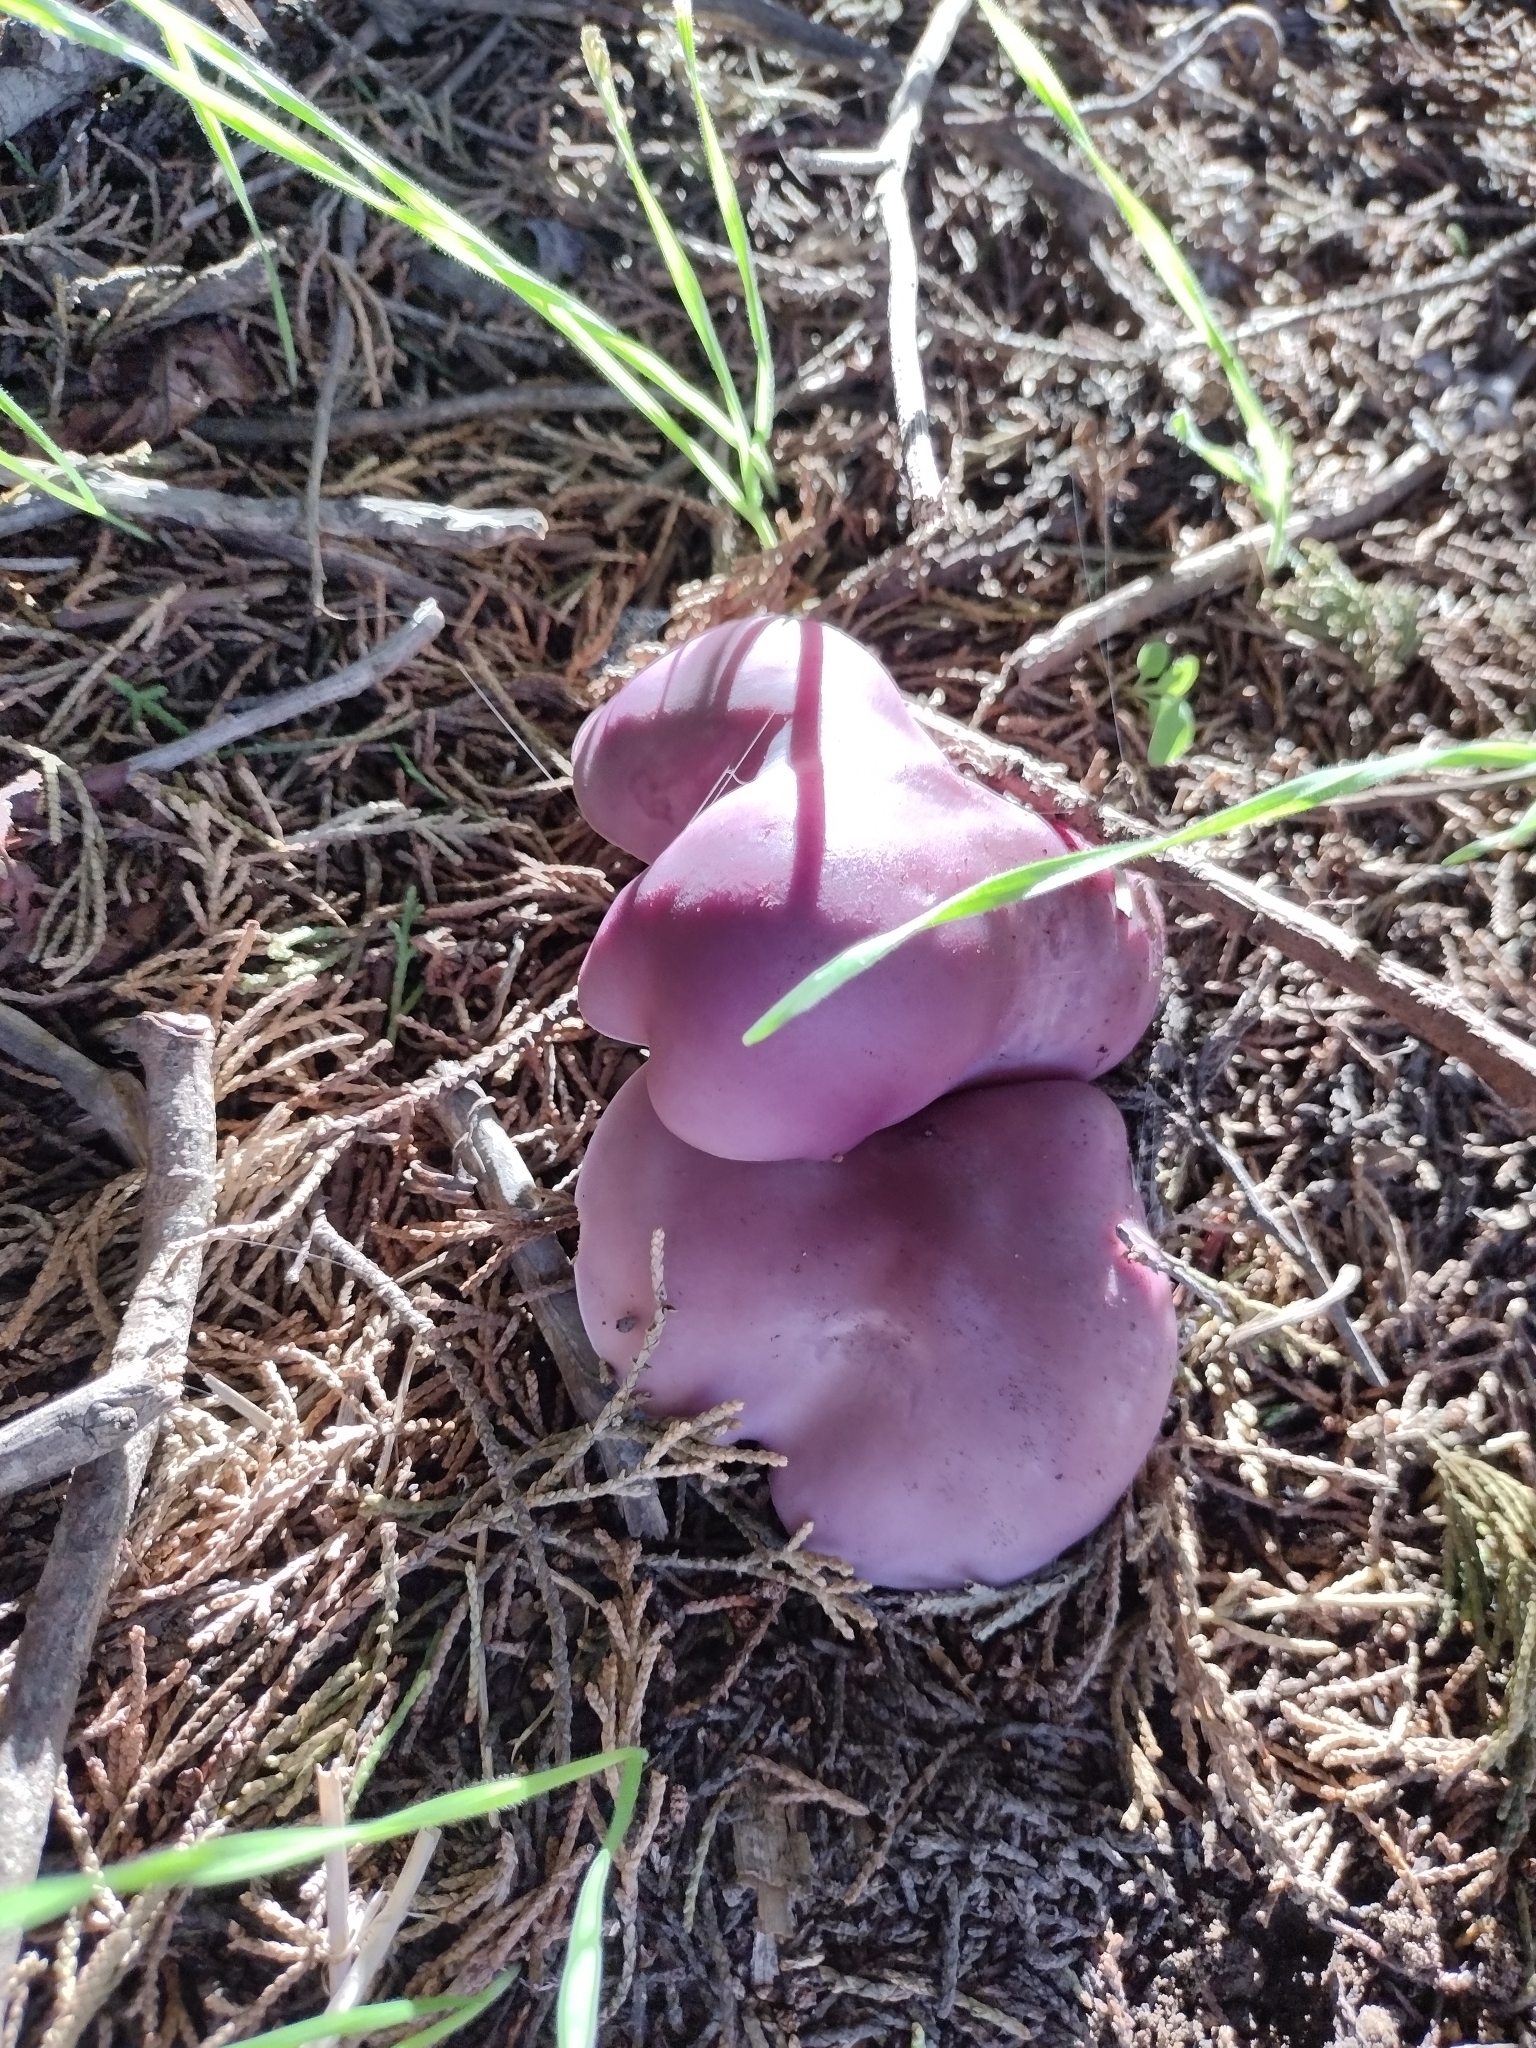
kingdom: Fungi
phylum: Basidiomycota
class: Agaricomycetes
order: Agaricales
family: Tricholomataceae
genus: Collybia
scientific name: Collybia
